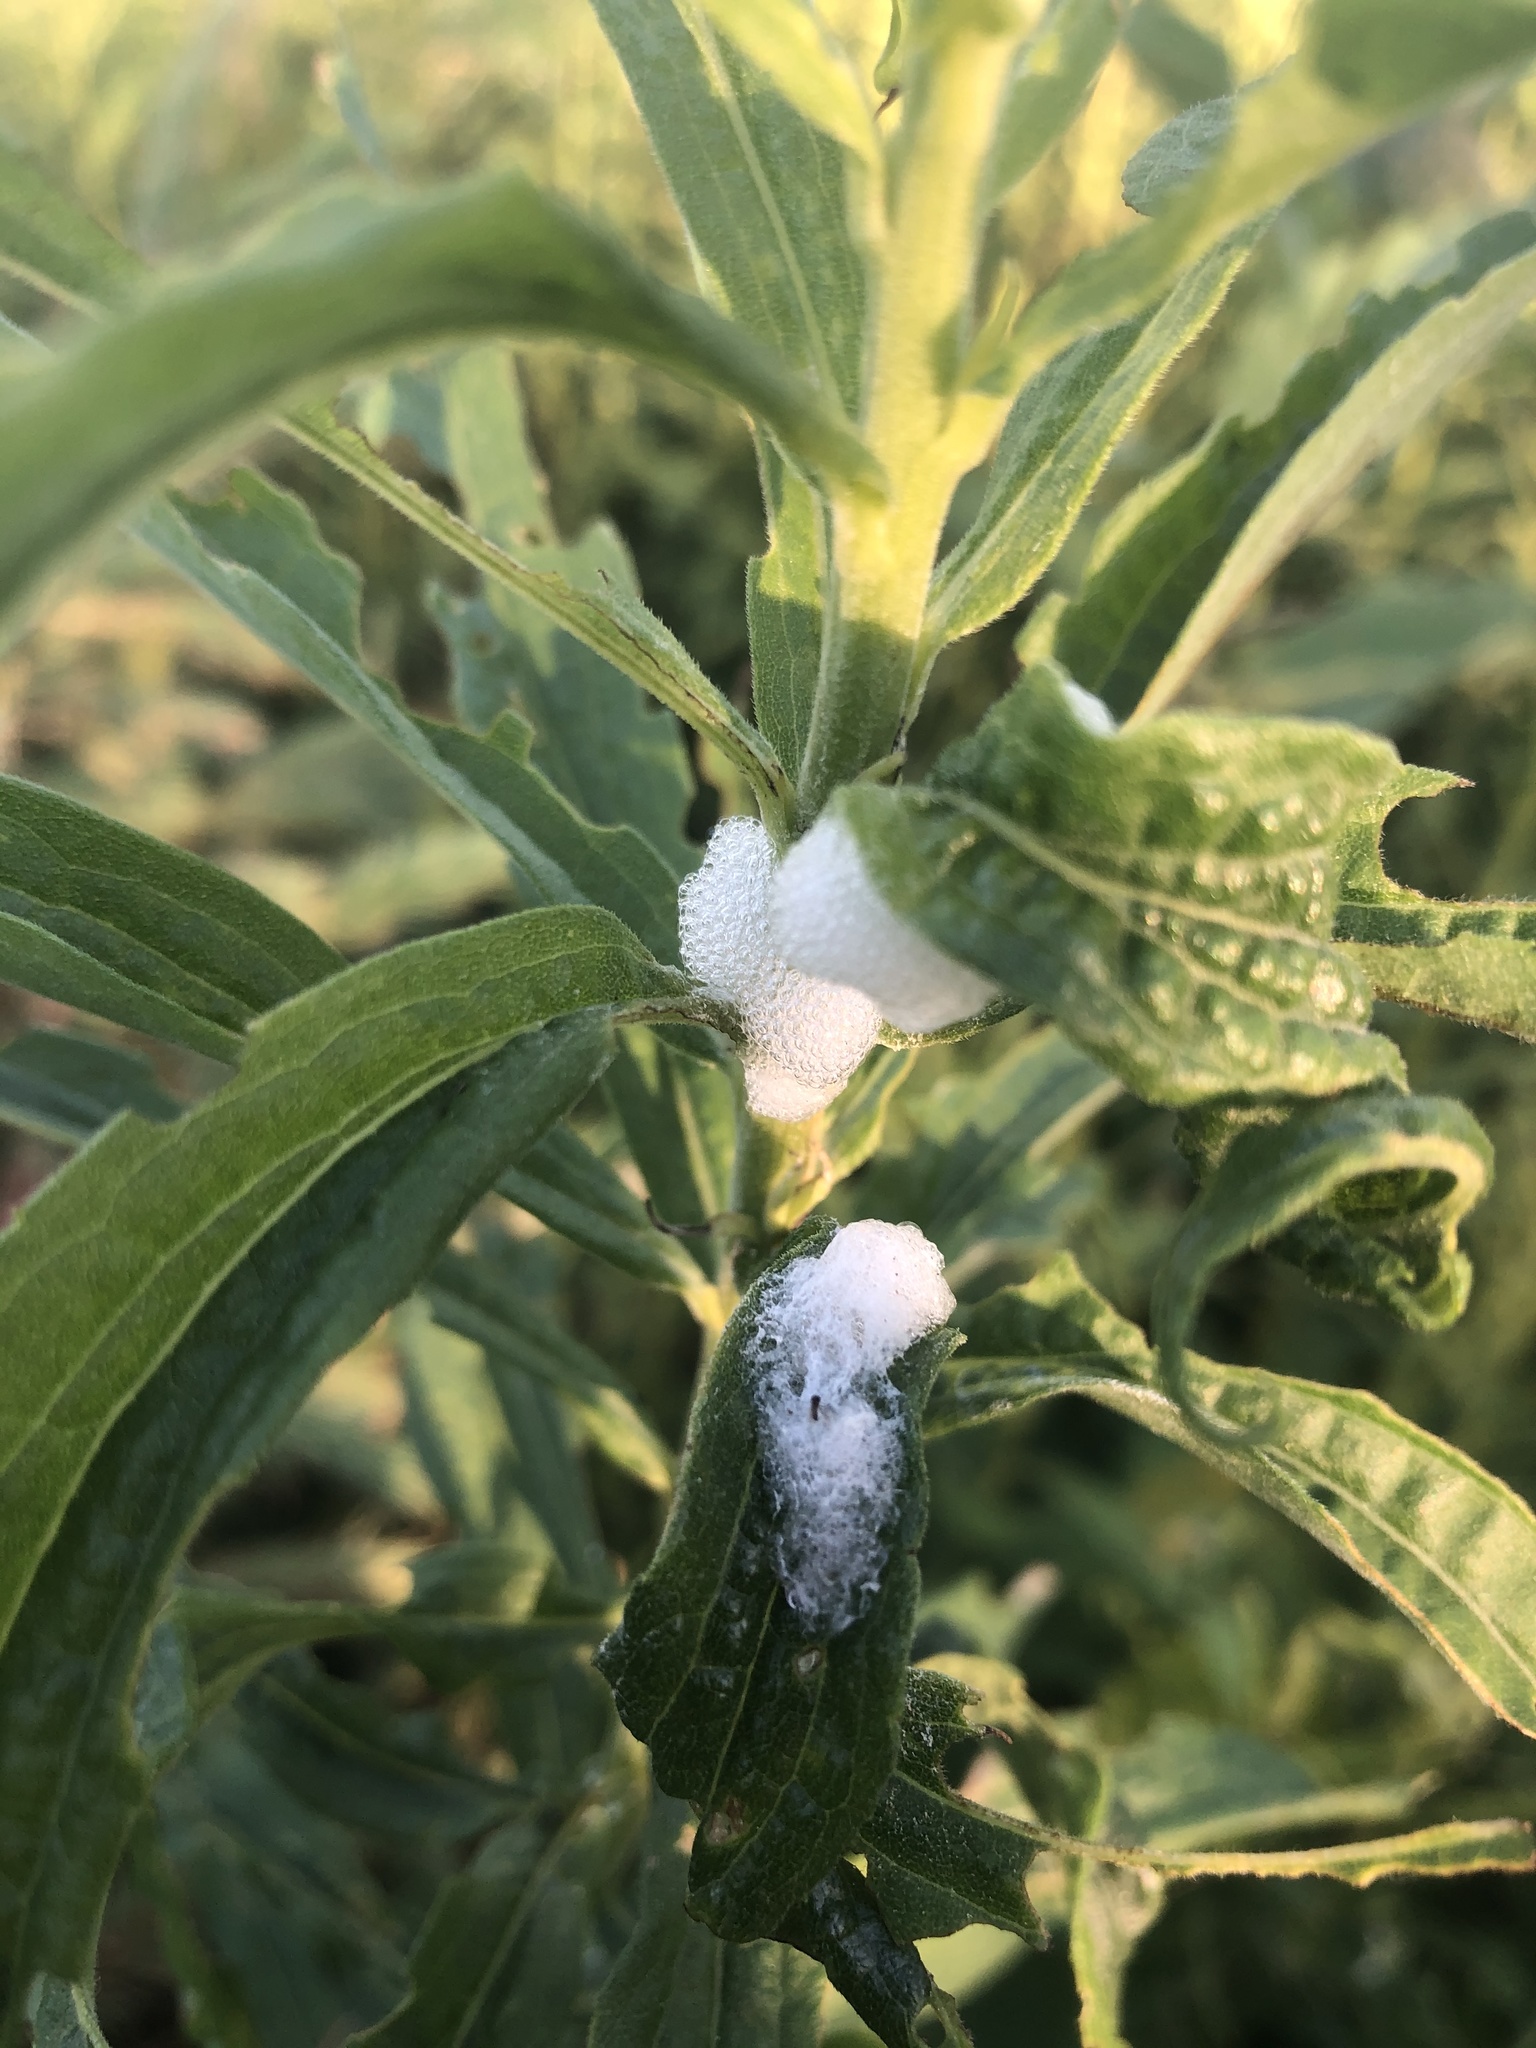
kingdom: Animalia
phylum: Arthropoda
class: Insecta
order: Hemiptera
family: Aphrophoridae
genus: Philaenus
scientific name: Philaenus spumarius
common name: Meadow spittlebug
